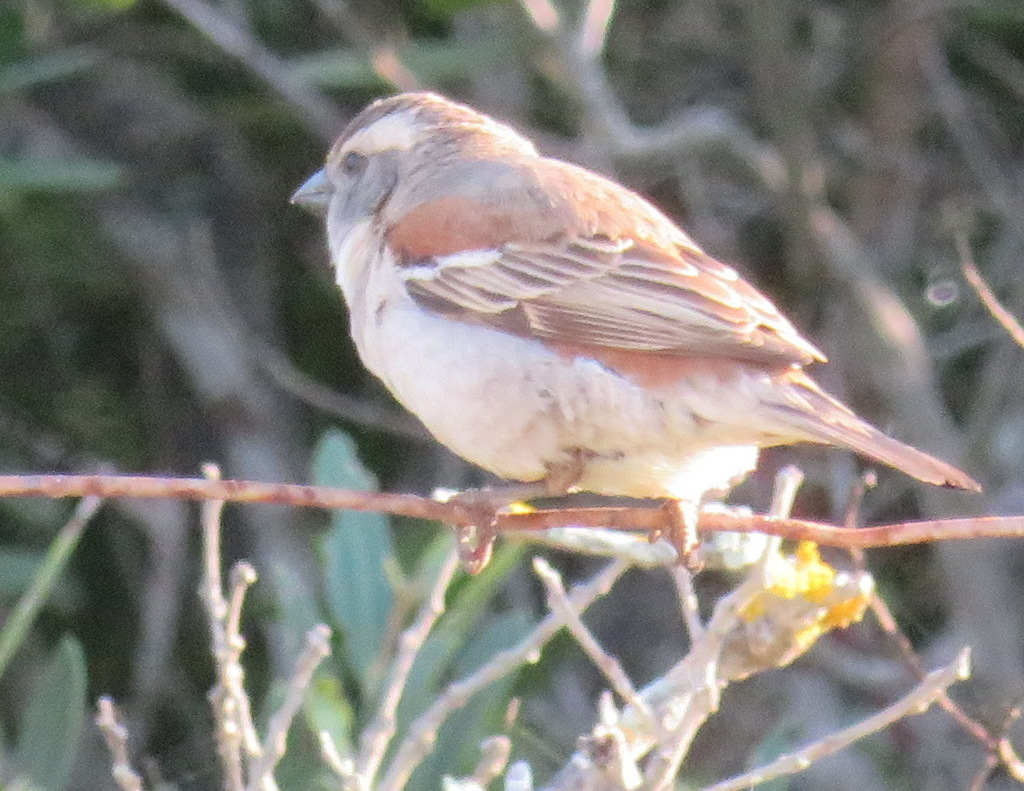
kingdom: Animalia
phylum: Chordata
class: Aves
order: Passeriformes
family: Passeridae
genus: Passer
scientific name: Passer melanurus
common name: Cape sparrow
